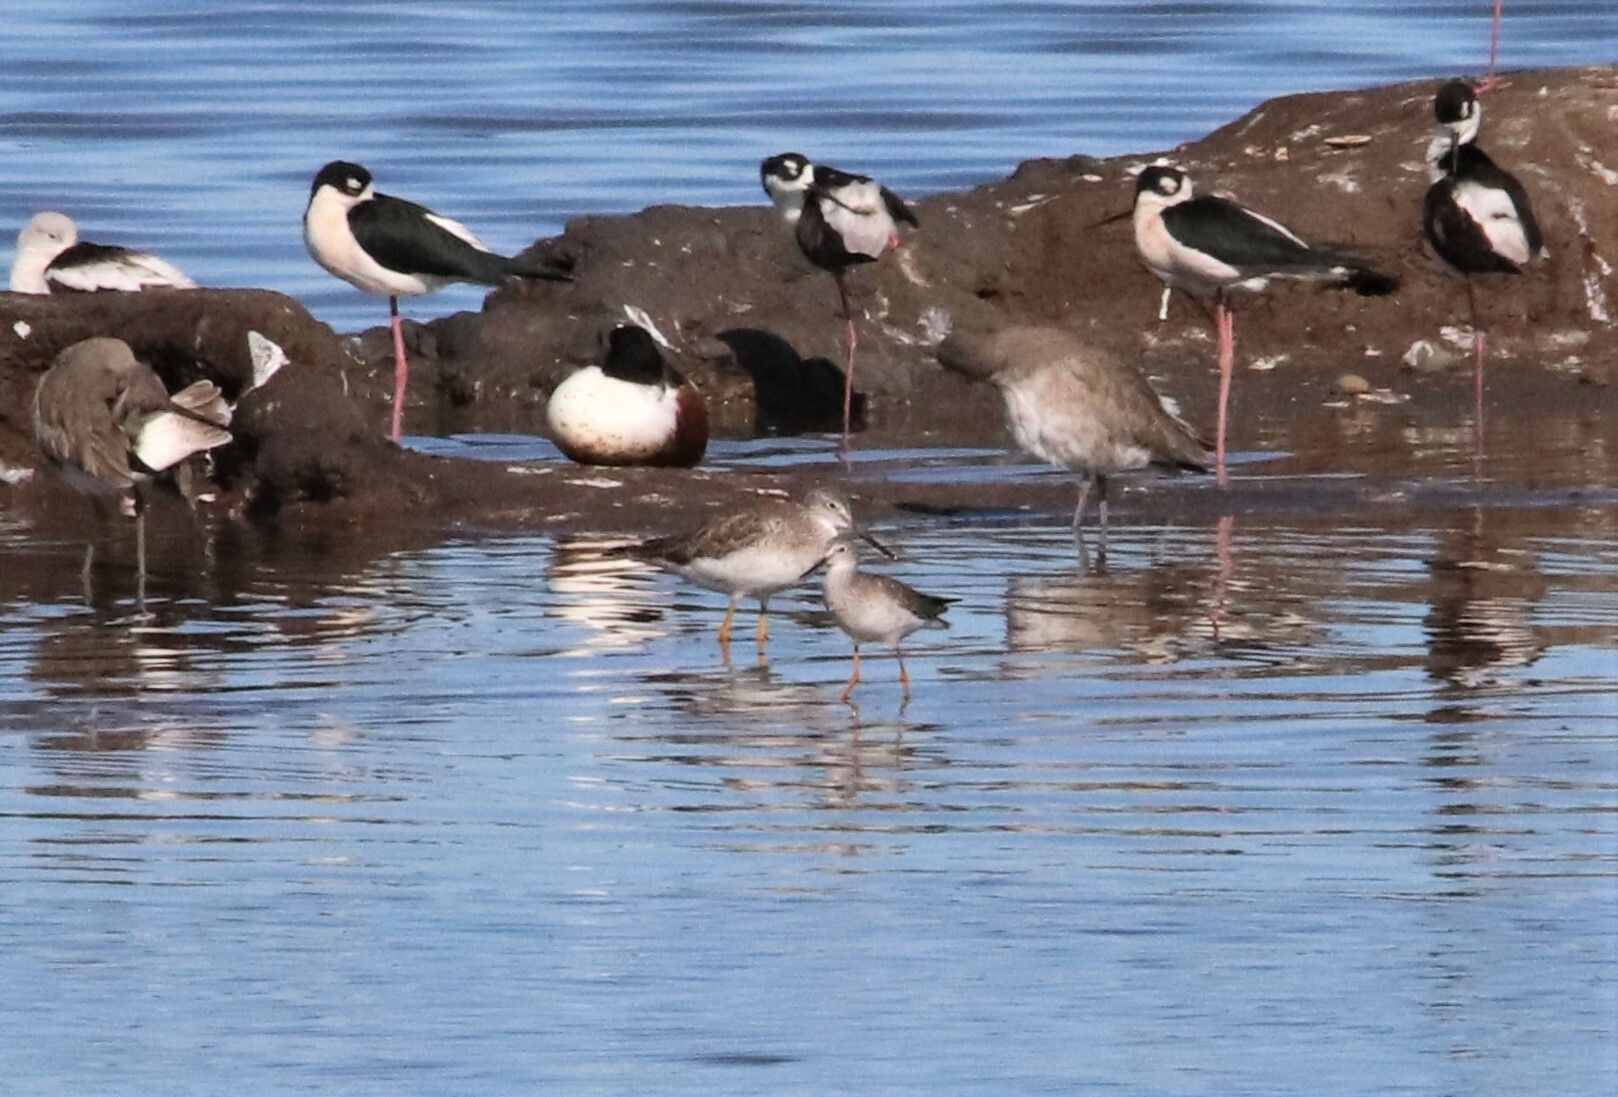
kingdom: Animalia
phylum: Chordata
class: Aves
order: Charadriiformes
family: Scolopacidae
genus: Tringa
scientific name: Tringa flavipes
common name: Lesser yellowlegs
